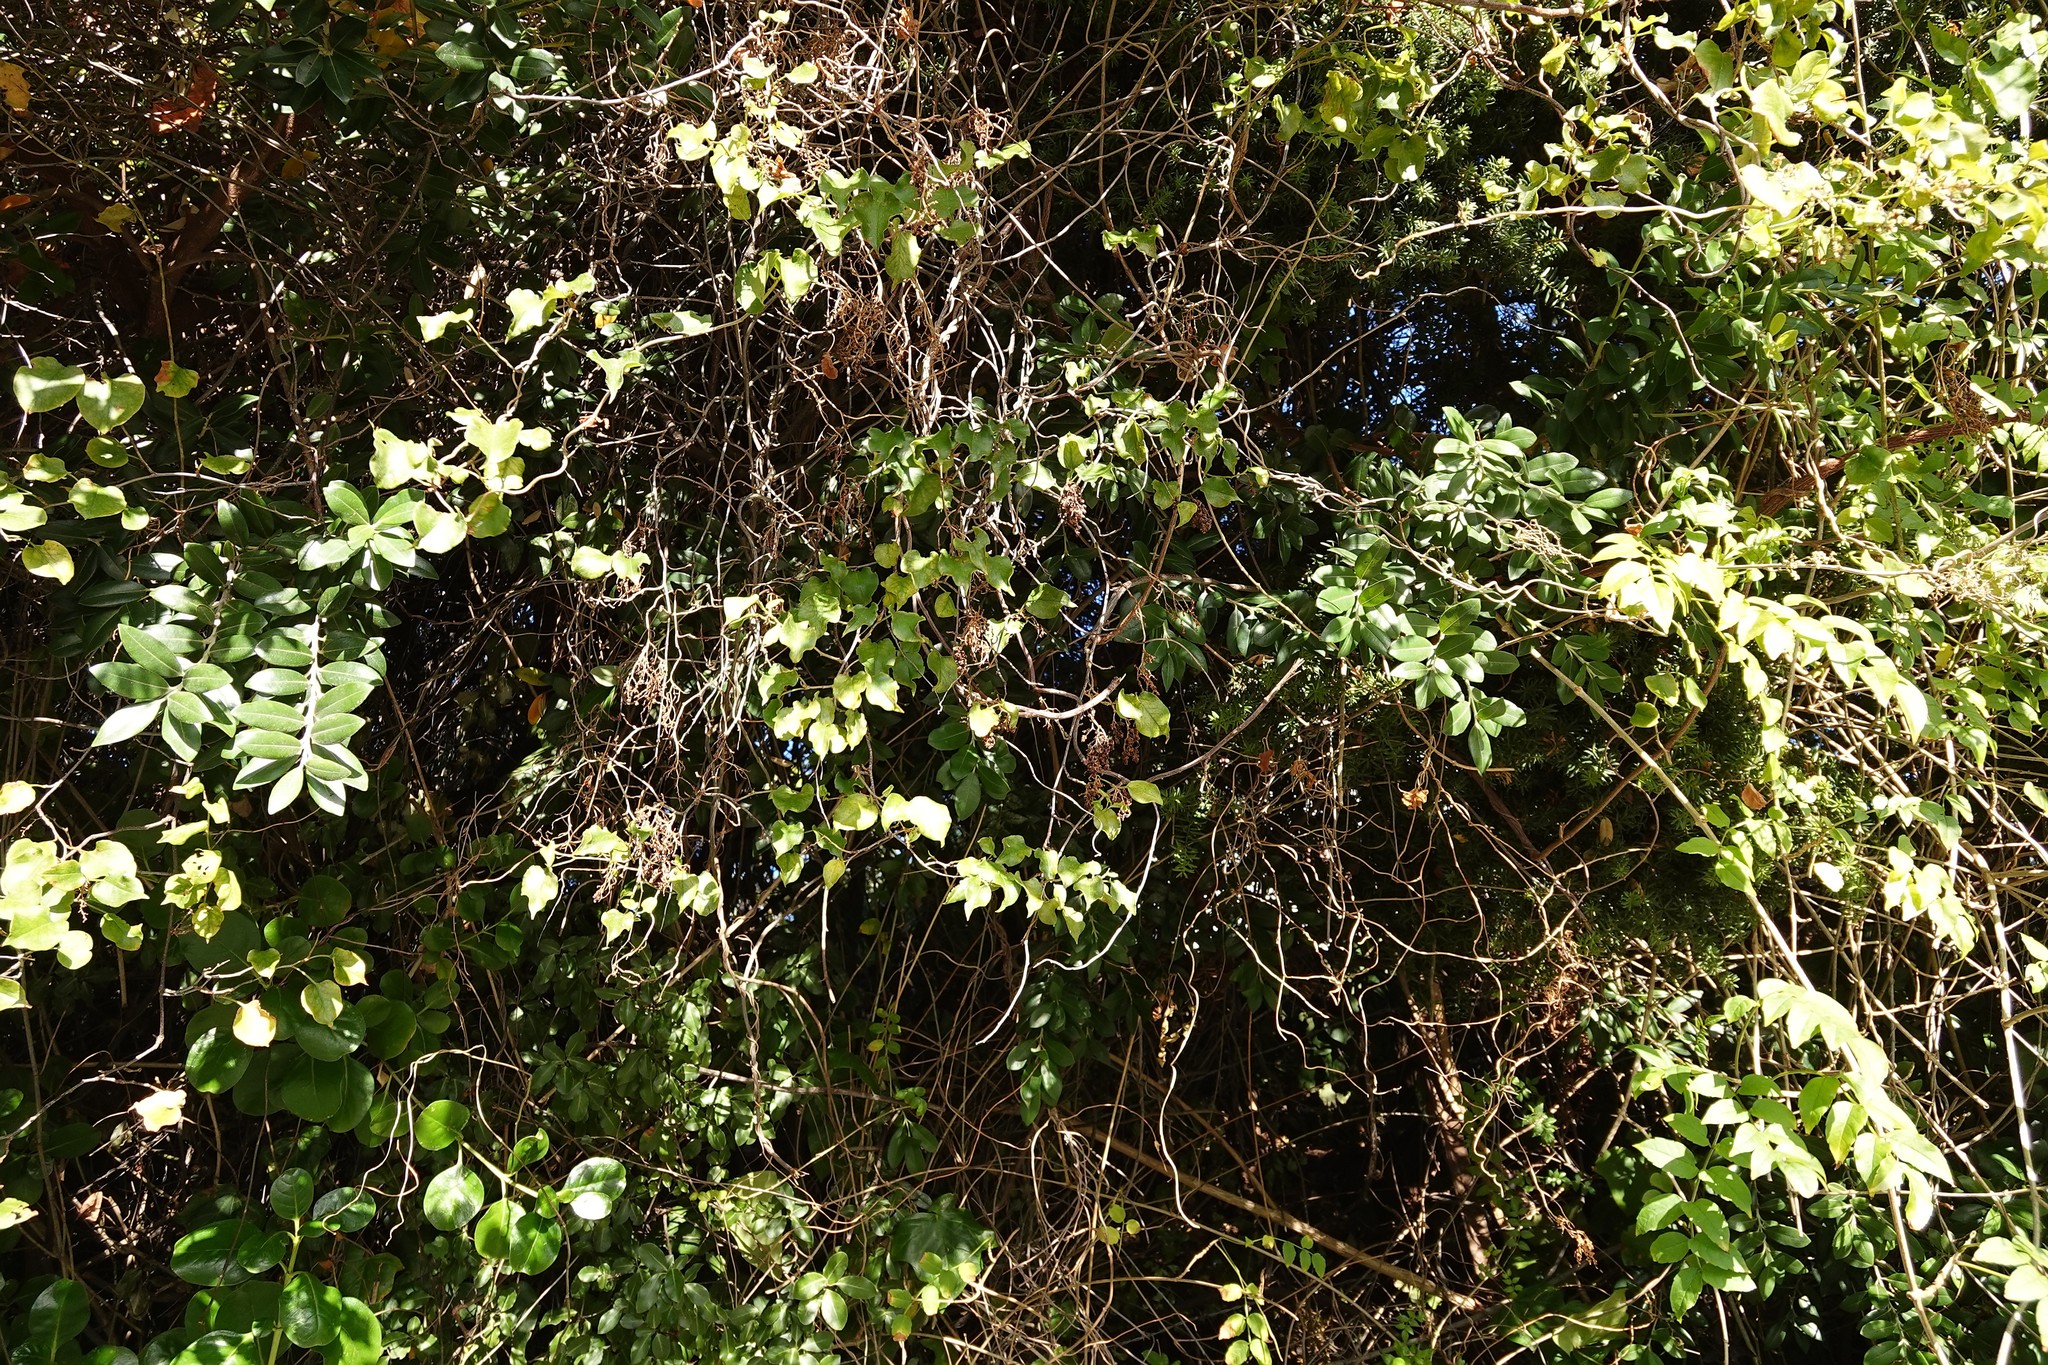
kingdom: Plantae
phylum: Tracheophyta
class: Magnoliopsida
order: Caryophyllales
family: Polygonaceae
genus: Muehlenbeckia
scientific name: Muehlenbeckia australis
